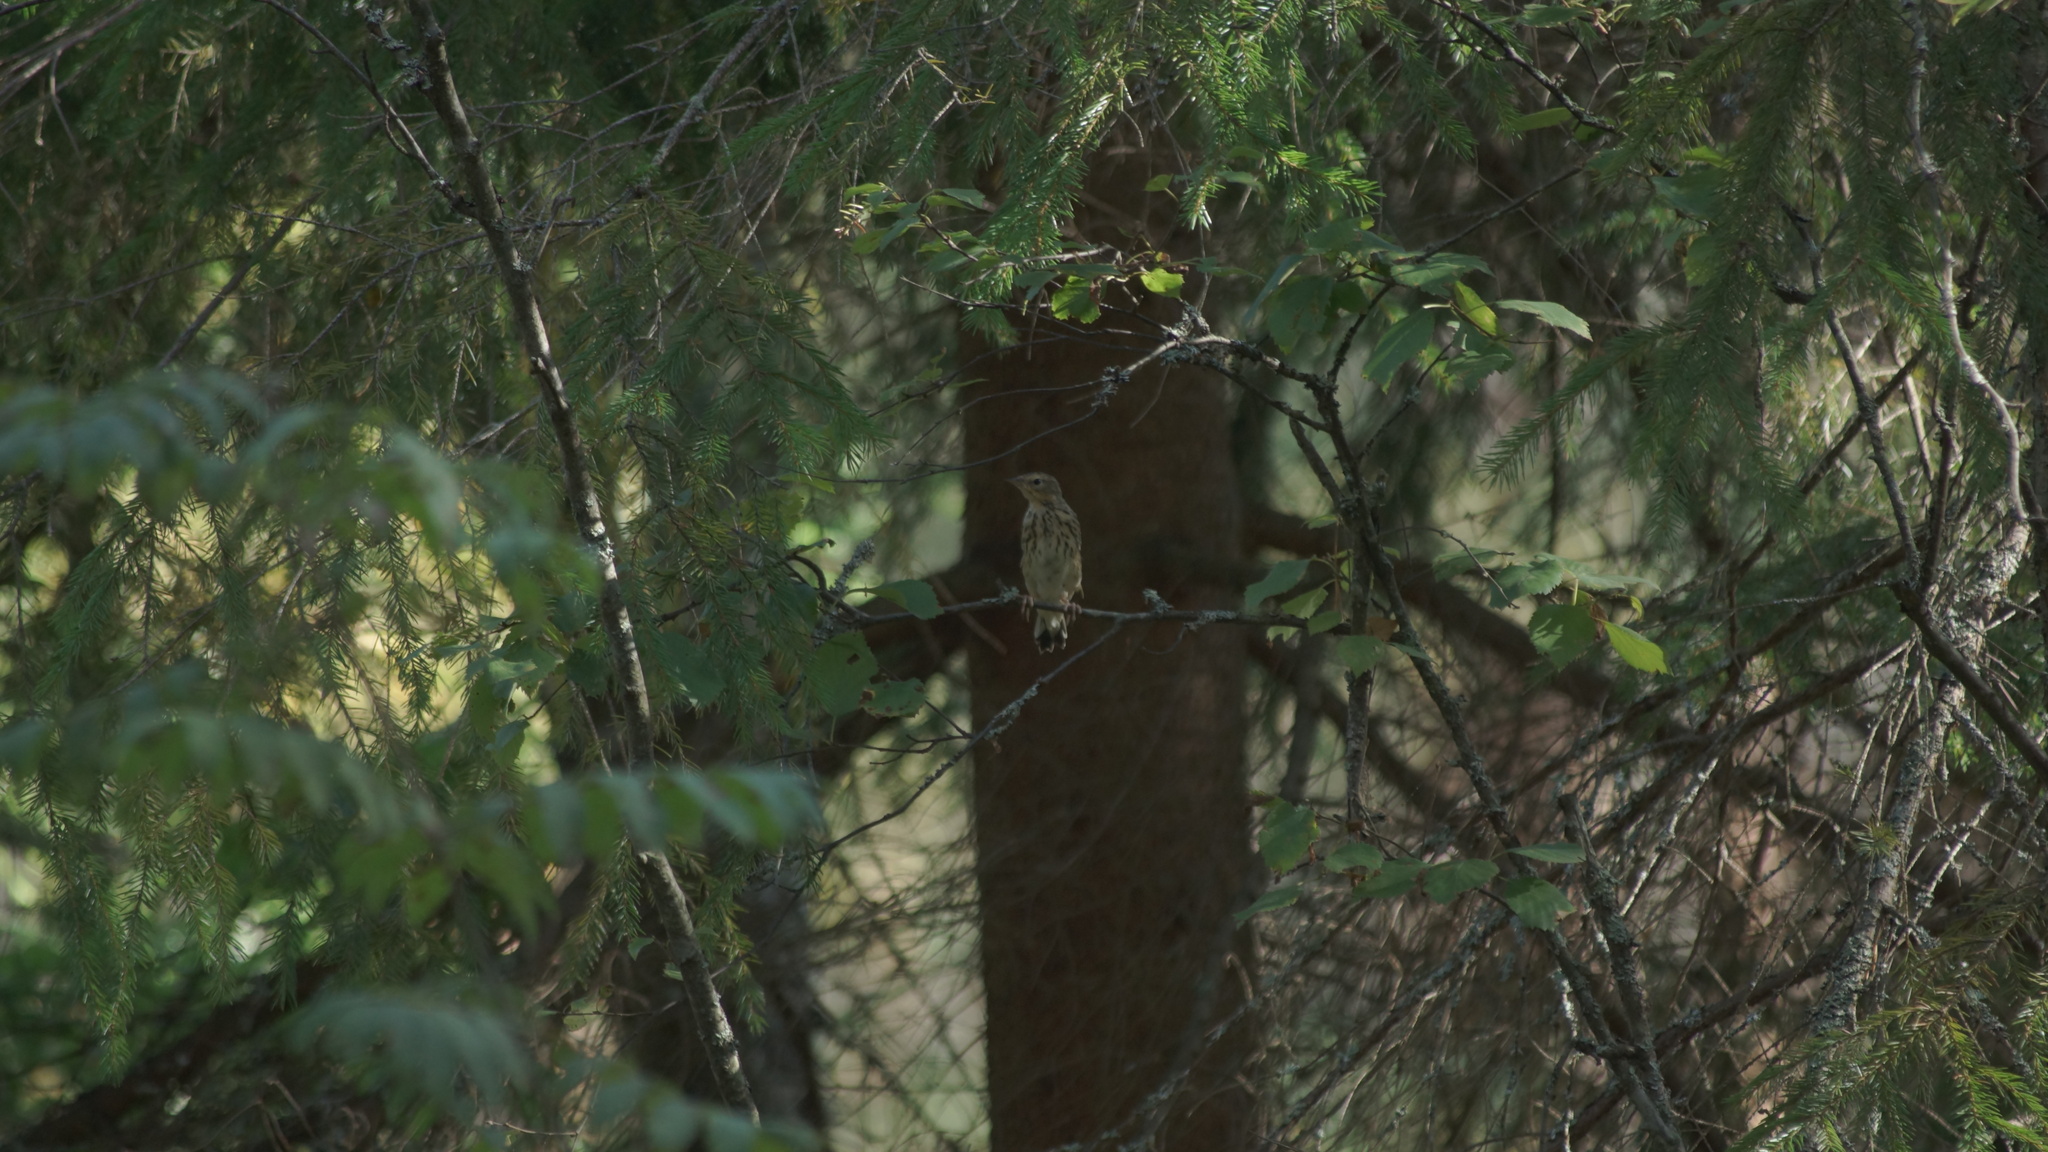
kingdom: Animalia
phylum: Chordata
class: Aves
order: Passeriformes
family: Motacillidae
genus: Anthus
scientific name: Anthus trivialis
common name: Tree pipit
